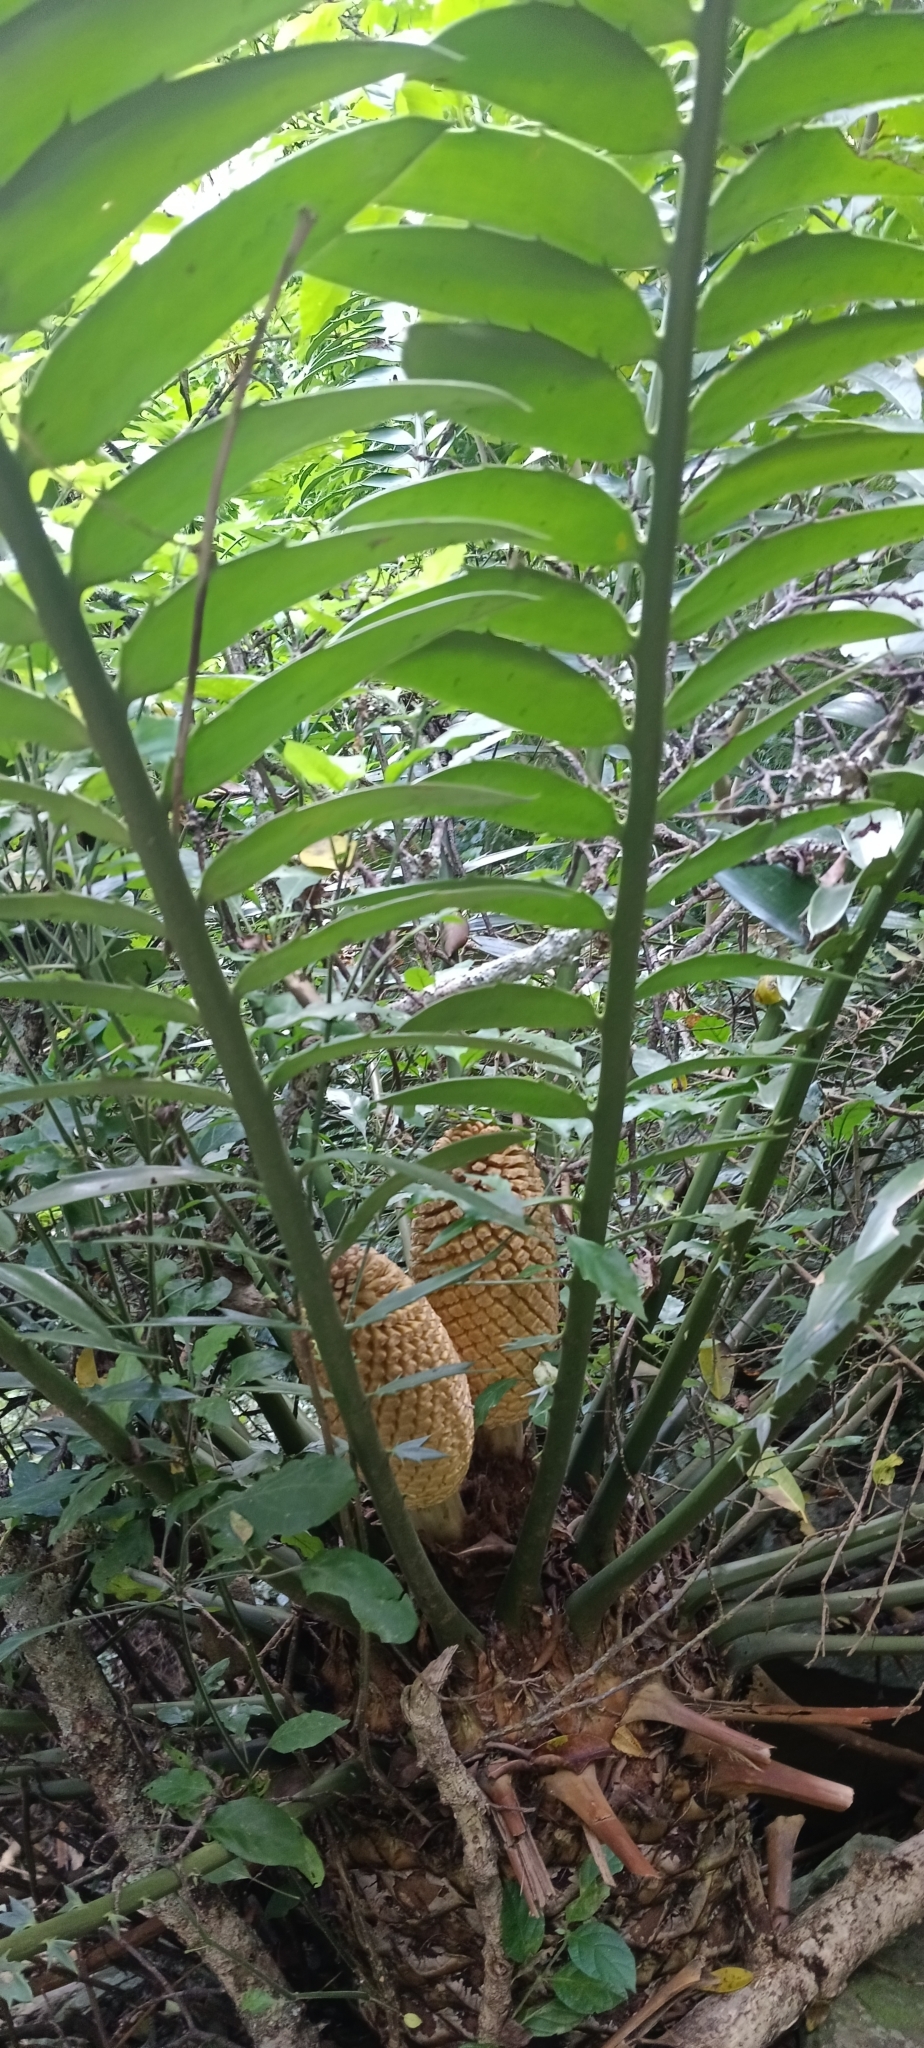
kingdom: Plantae
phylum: Tracheophyta
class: Cycadopsida
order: Cycadales
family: Zamiaceae
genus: Encephalartos
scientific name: Encephalartos natalensis
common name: Natal cycad
